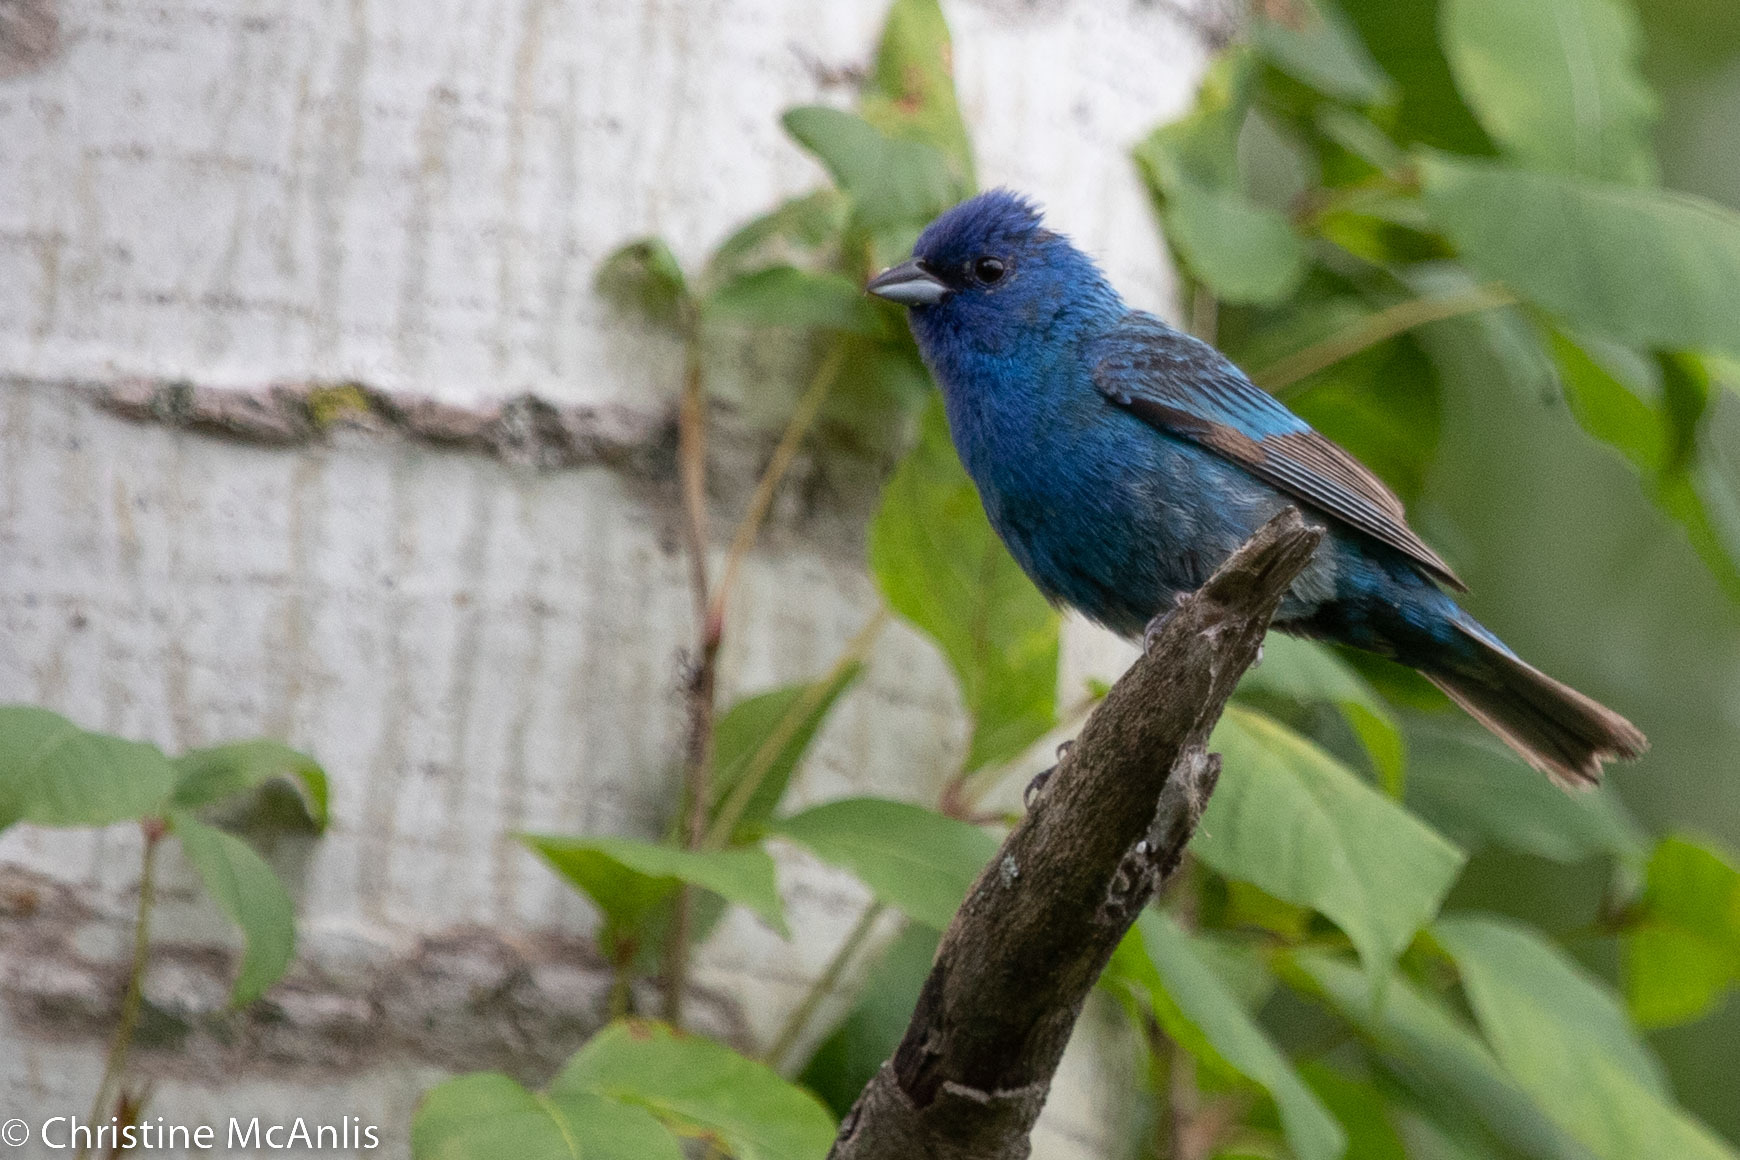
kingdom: Animalia
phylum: Chordata
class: Aves
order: Passeriformes
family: Cardinalidae
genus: Passerina
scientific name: Passerina cyanea
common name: Indigo bunting
